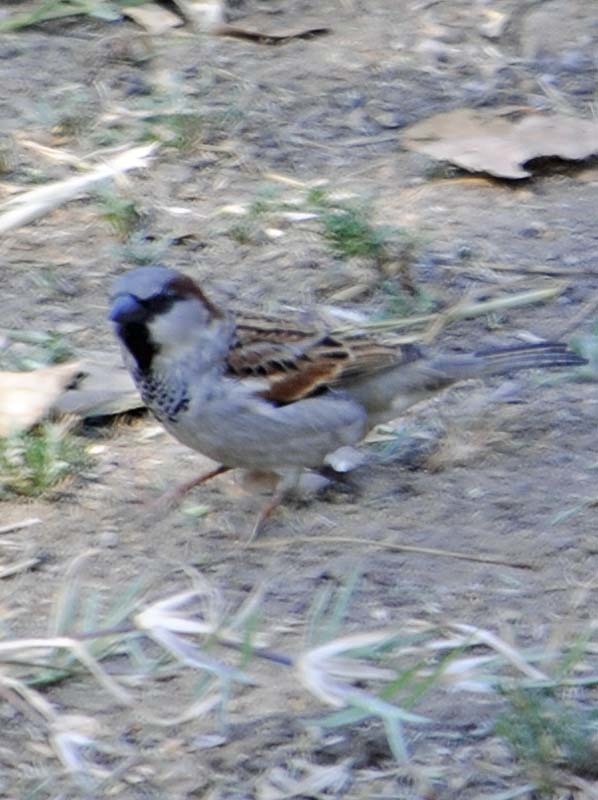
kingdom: Animalia
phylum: Chordata
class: Aves
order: Passeriformes
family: Passeridae
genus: Passer
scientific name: Passer domesticus
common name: House sparrow
